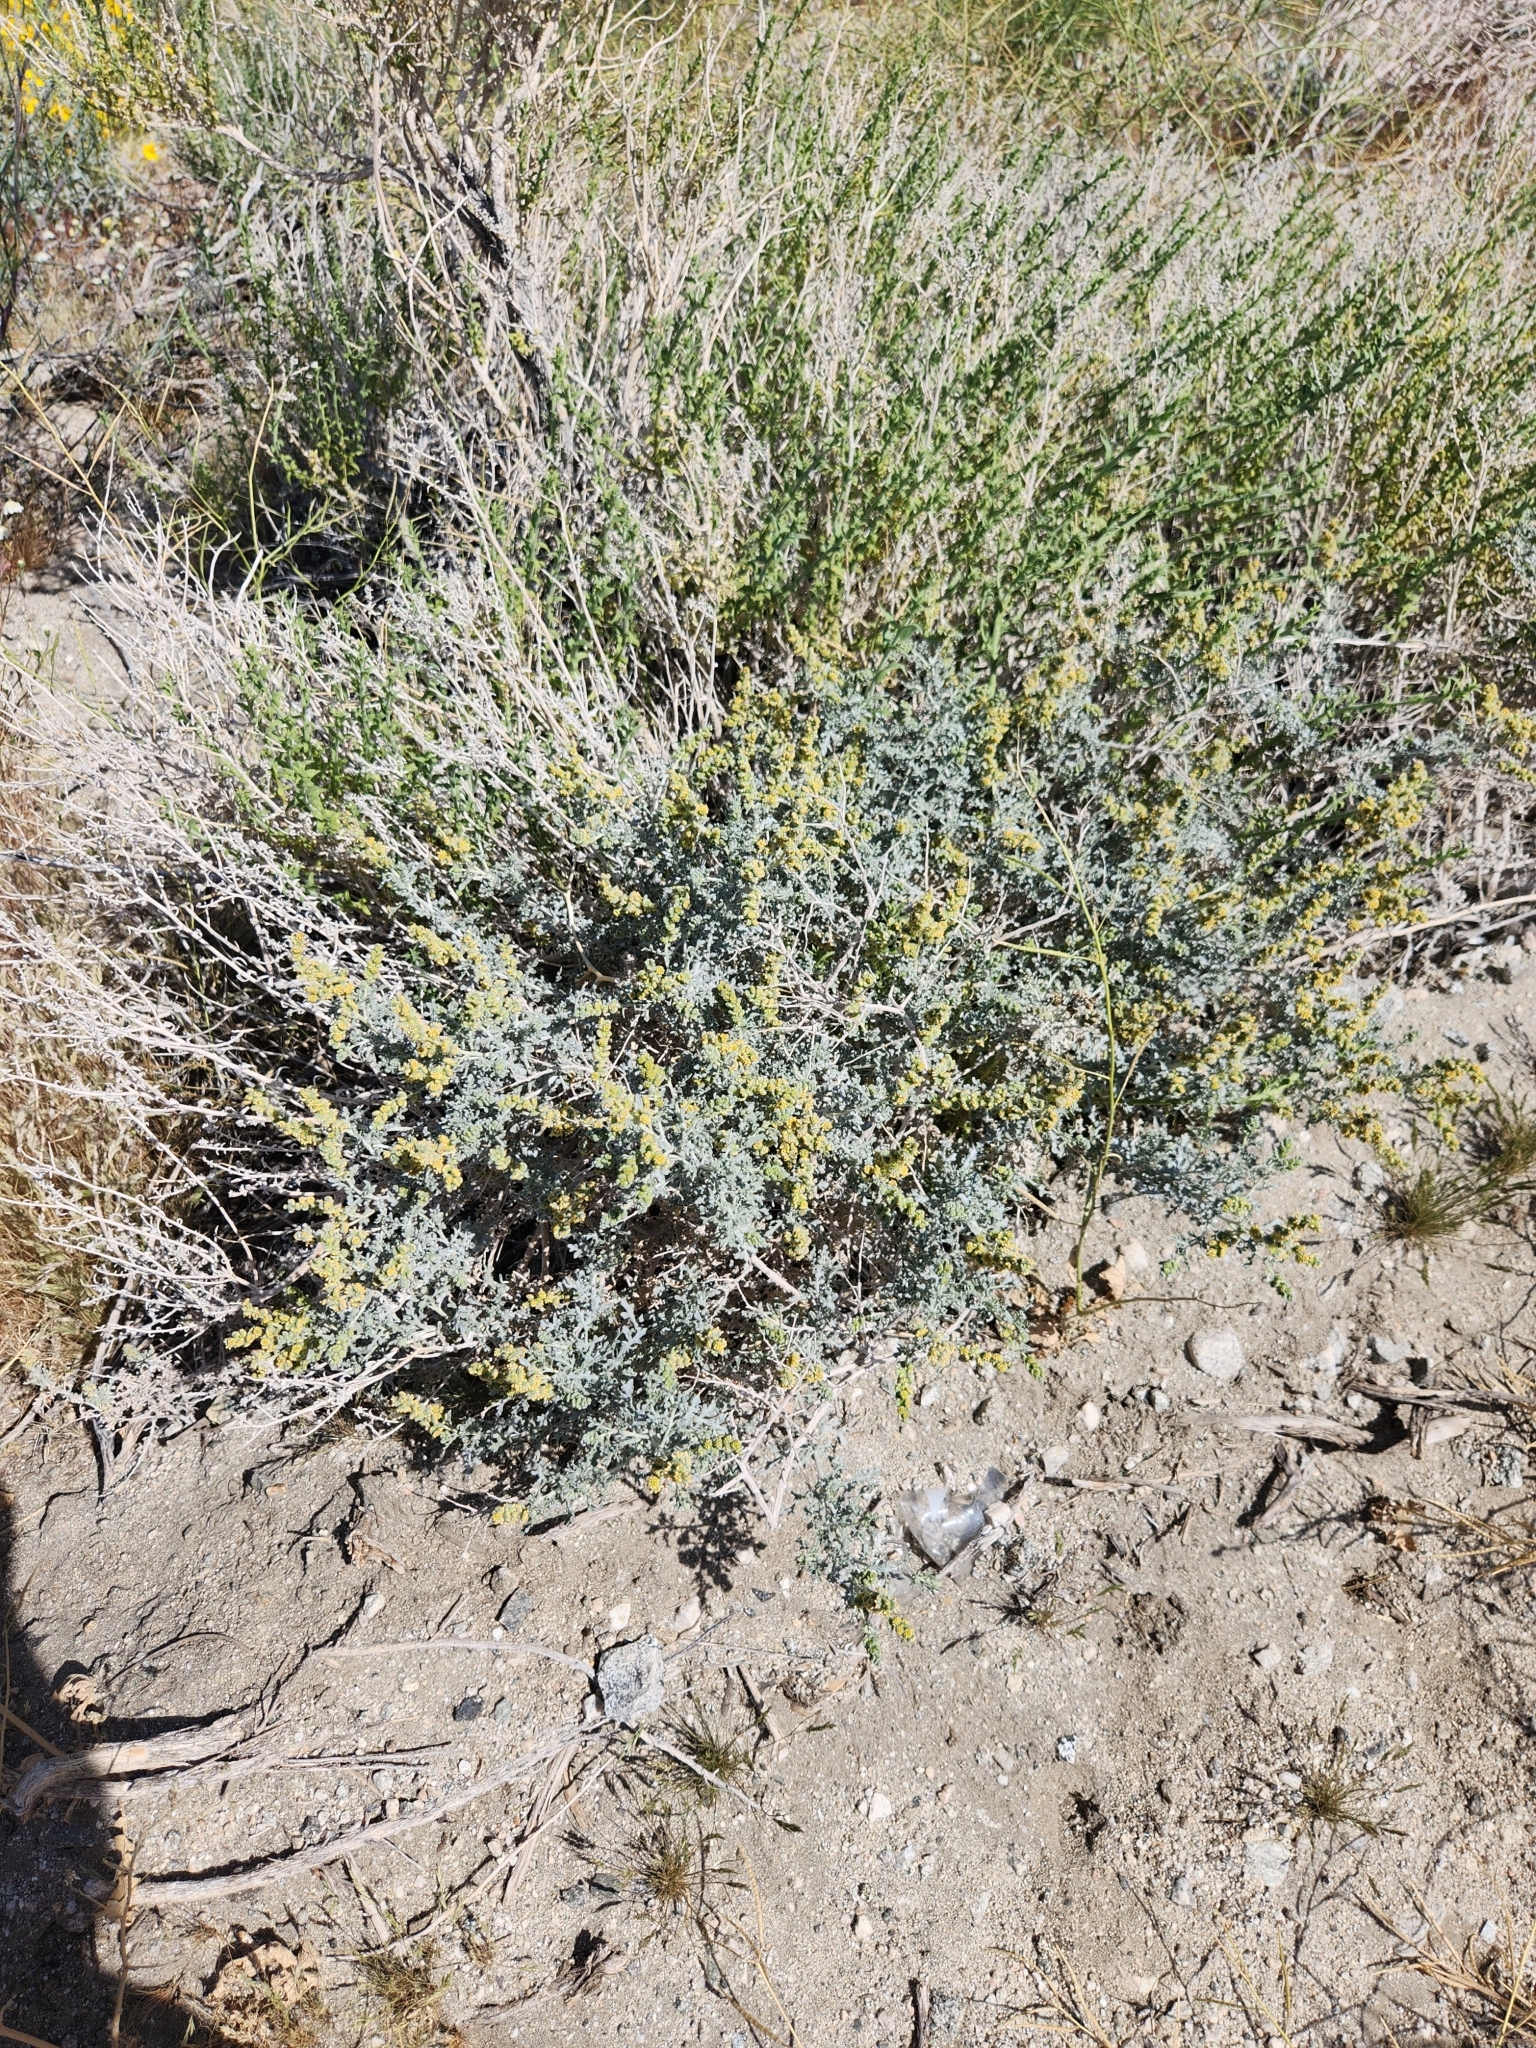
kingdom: Plantae
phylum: Tracheophyta
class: Magnoliopsida
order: Asterales
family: Asteraceae
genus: Ambrosia
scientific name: Ambrosia dumosa
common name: Bur-sage
